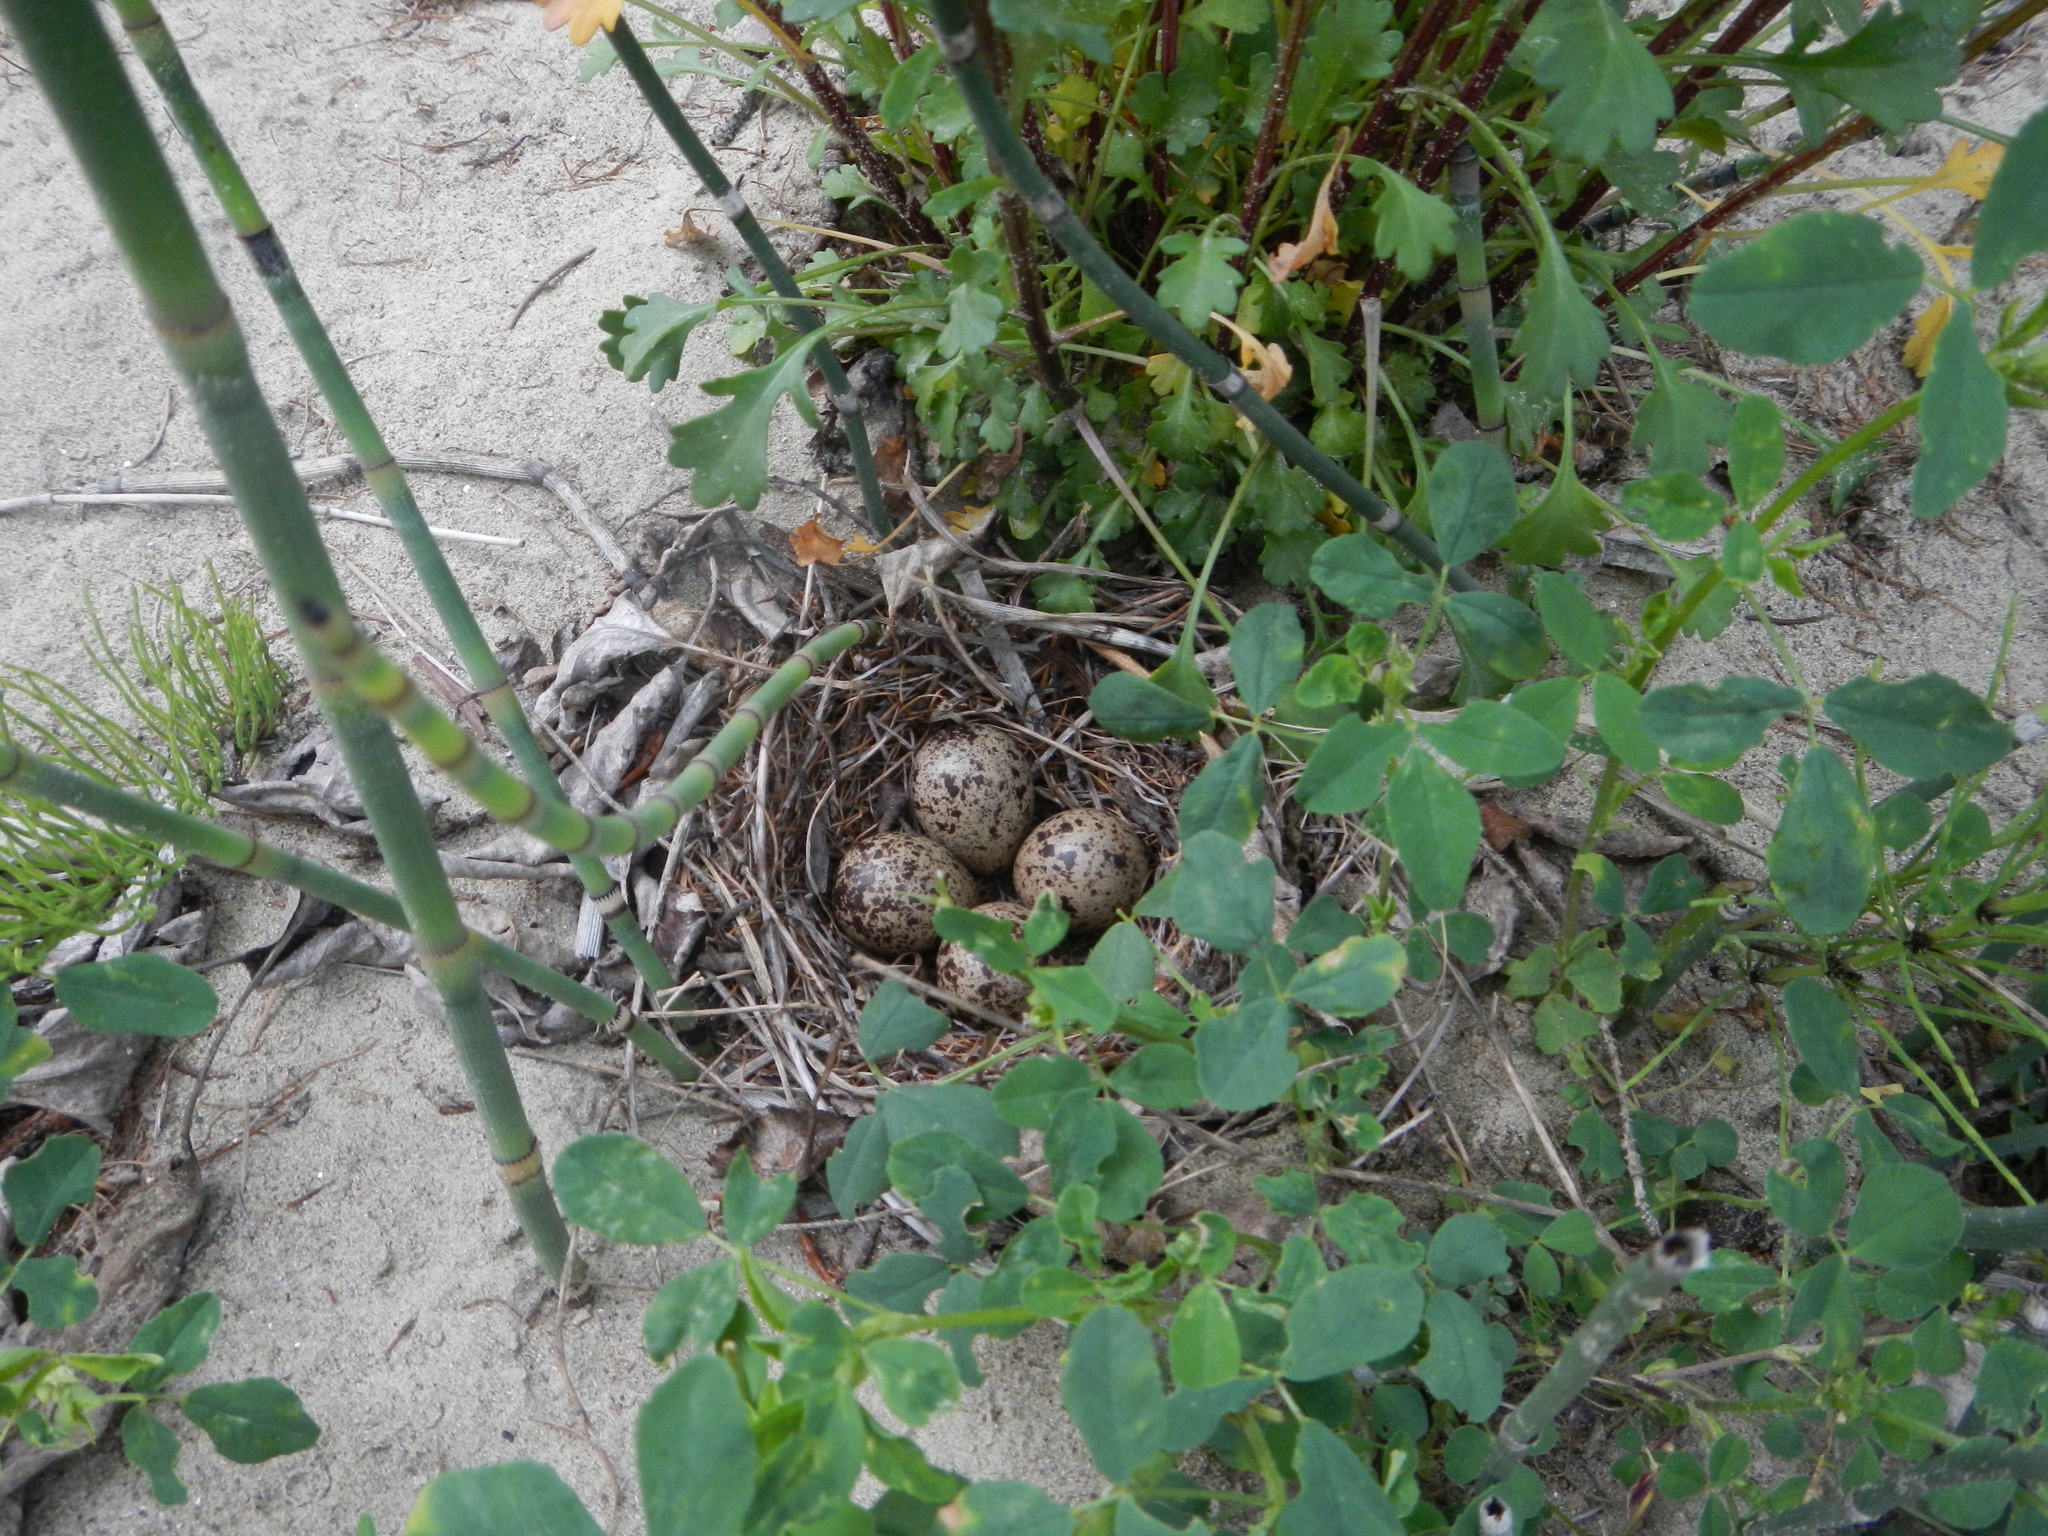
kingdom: Animalia
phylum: Chordata
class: Aves
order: Charadriiformes
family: Scolopacidae
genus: Actitis
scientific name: Actitis macularius
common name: Spotted sandpiper
